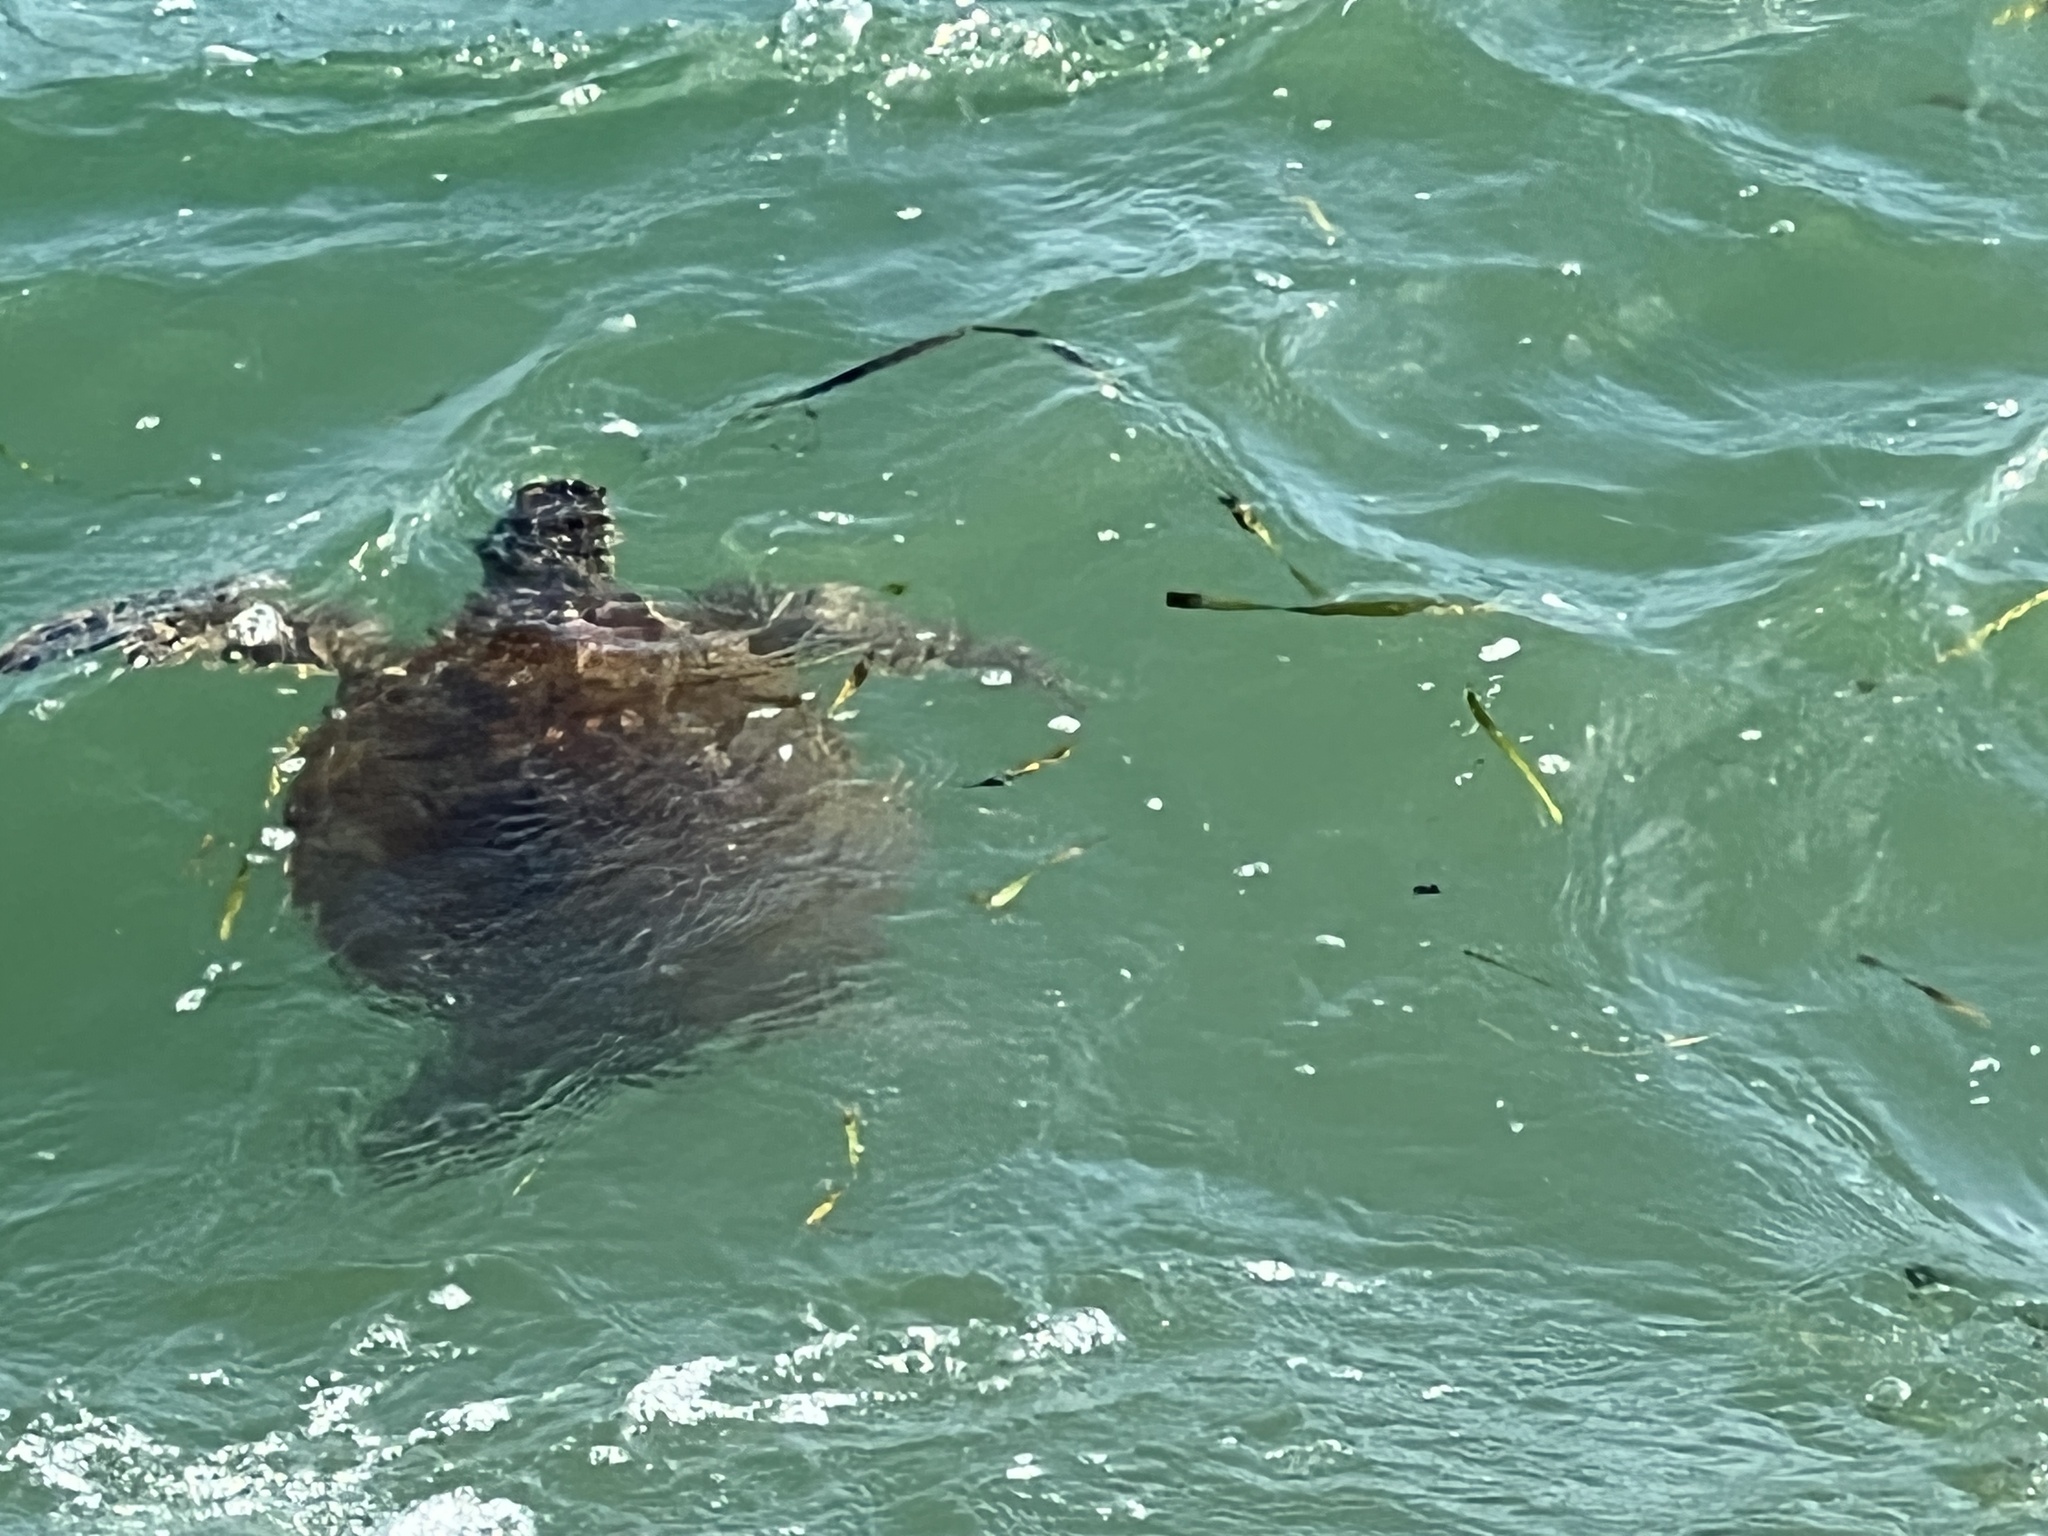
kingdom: Animalia
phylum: Chordata
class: Testudines
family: Cheloniidae
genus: Chelonia
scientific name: Chelonia mydas
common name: Green turtle
